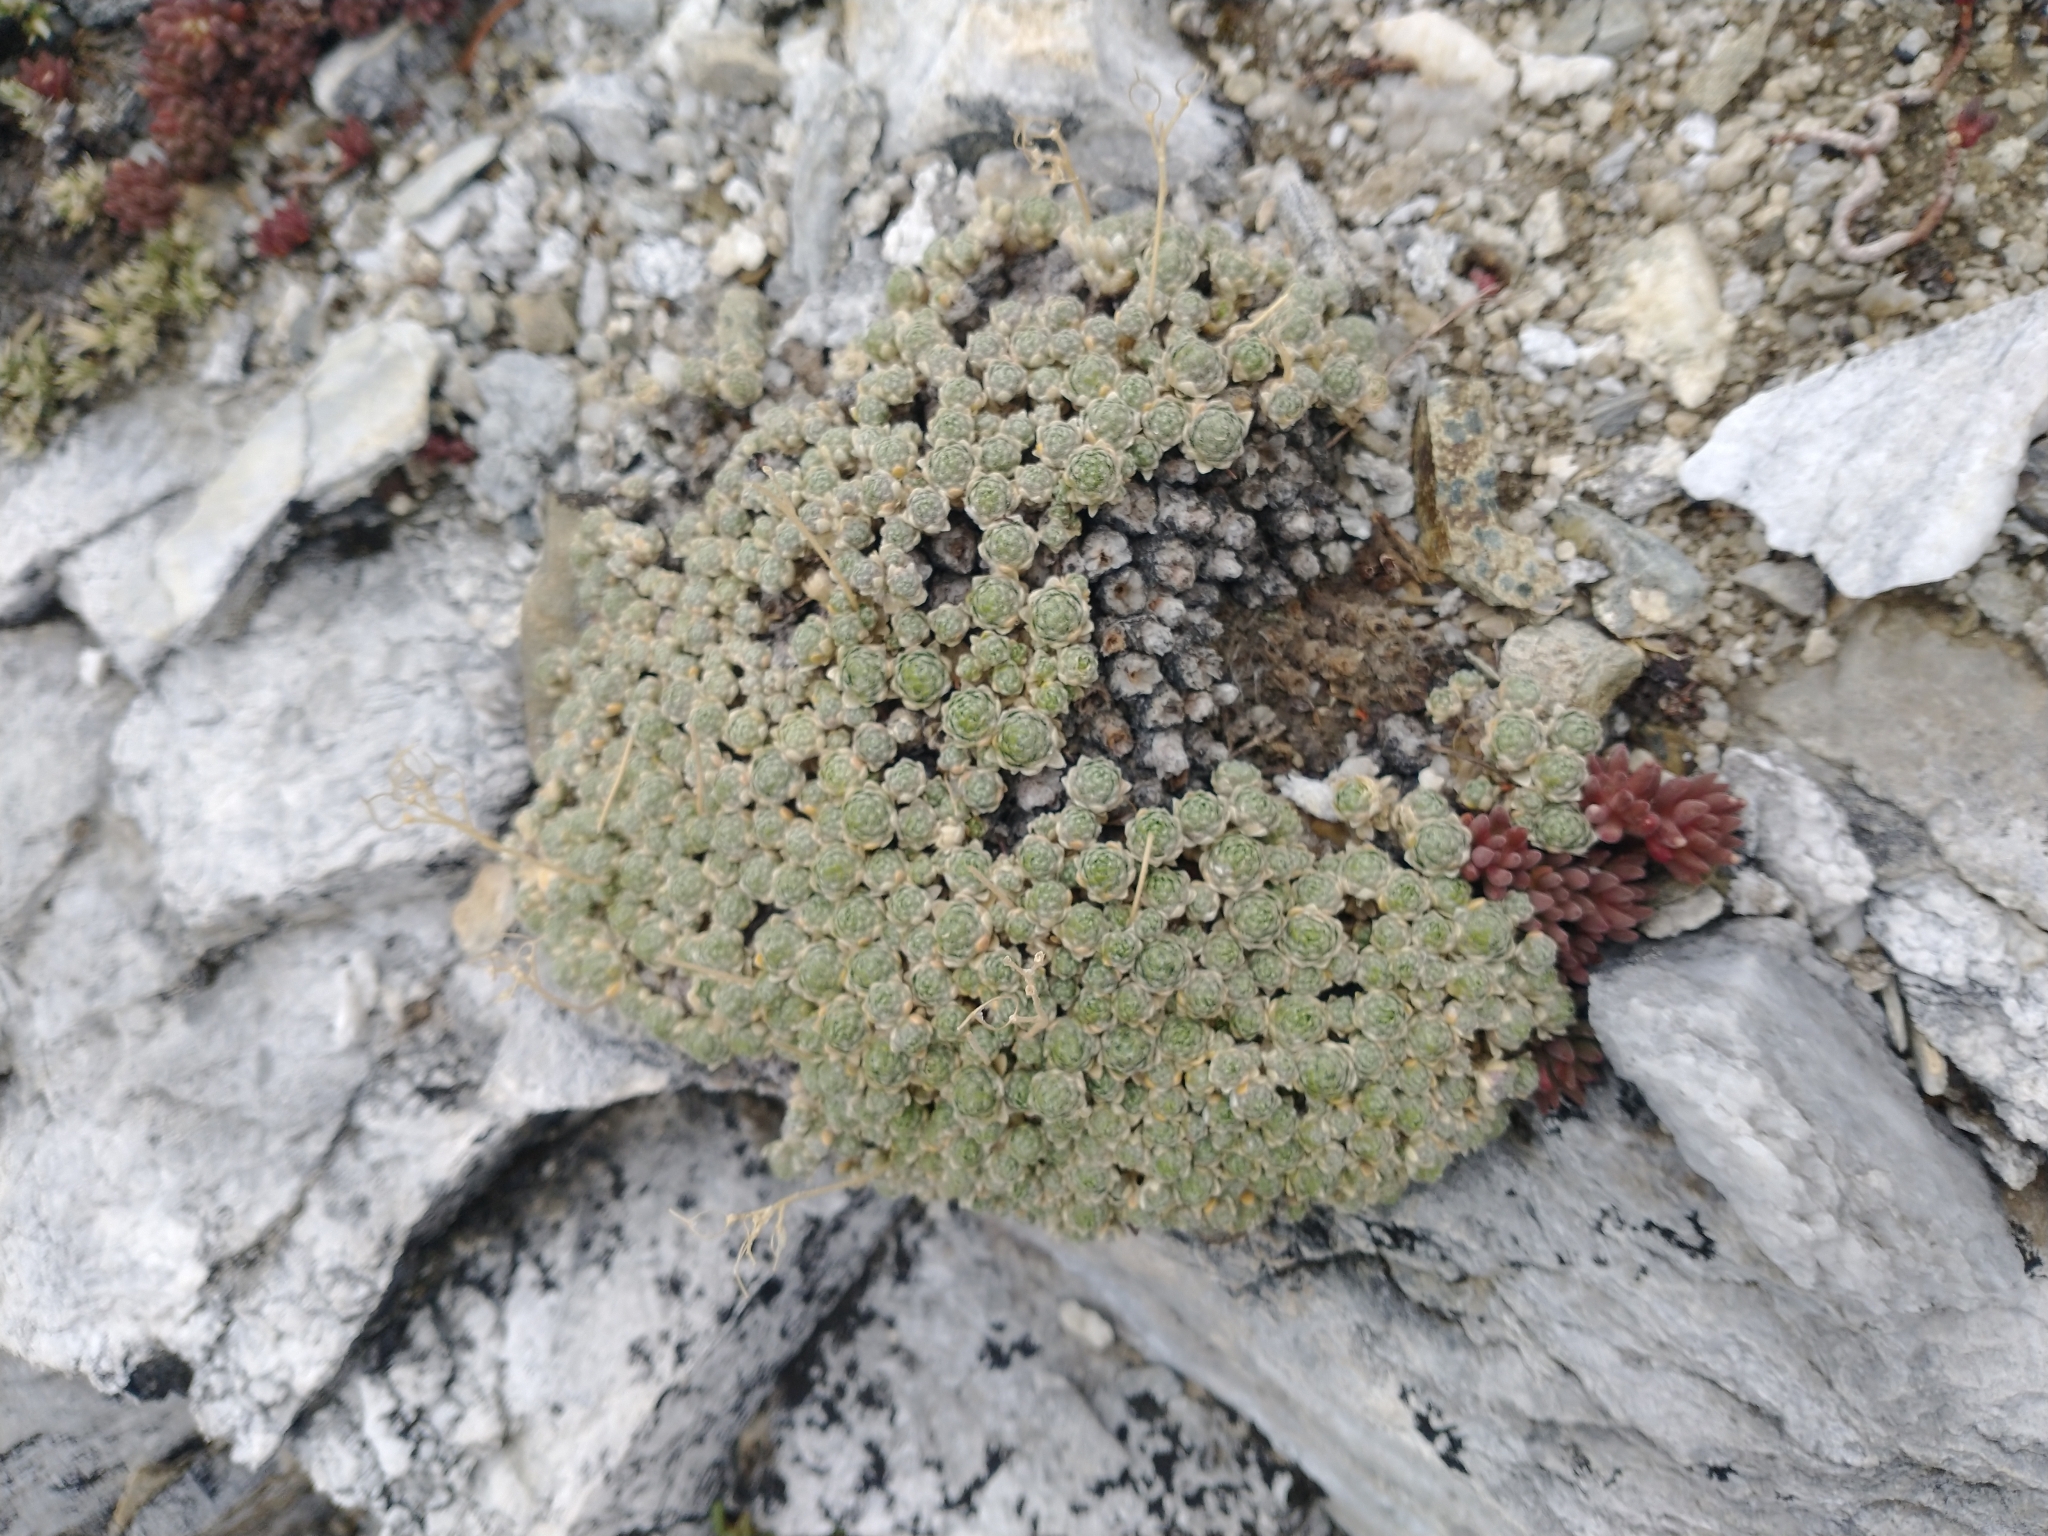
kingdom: Plantae
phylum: Tracheophyta
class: Magnoliopsida
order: Brassicales
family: Brassicaceae
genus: Draba
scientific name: Draba pterosperma
